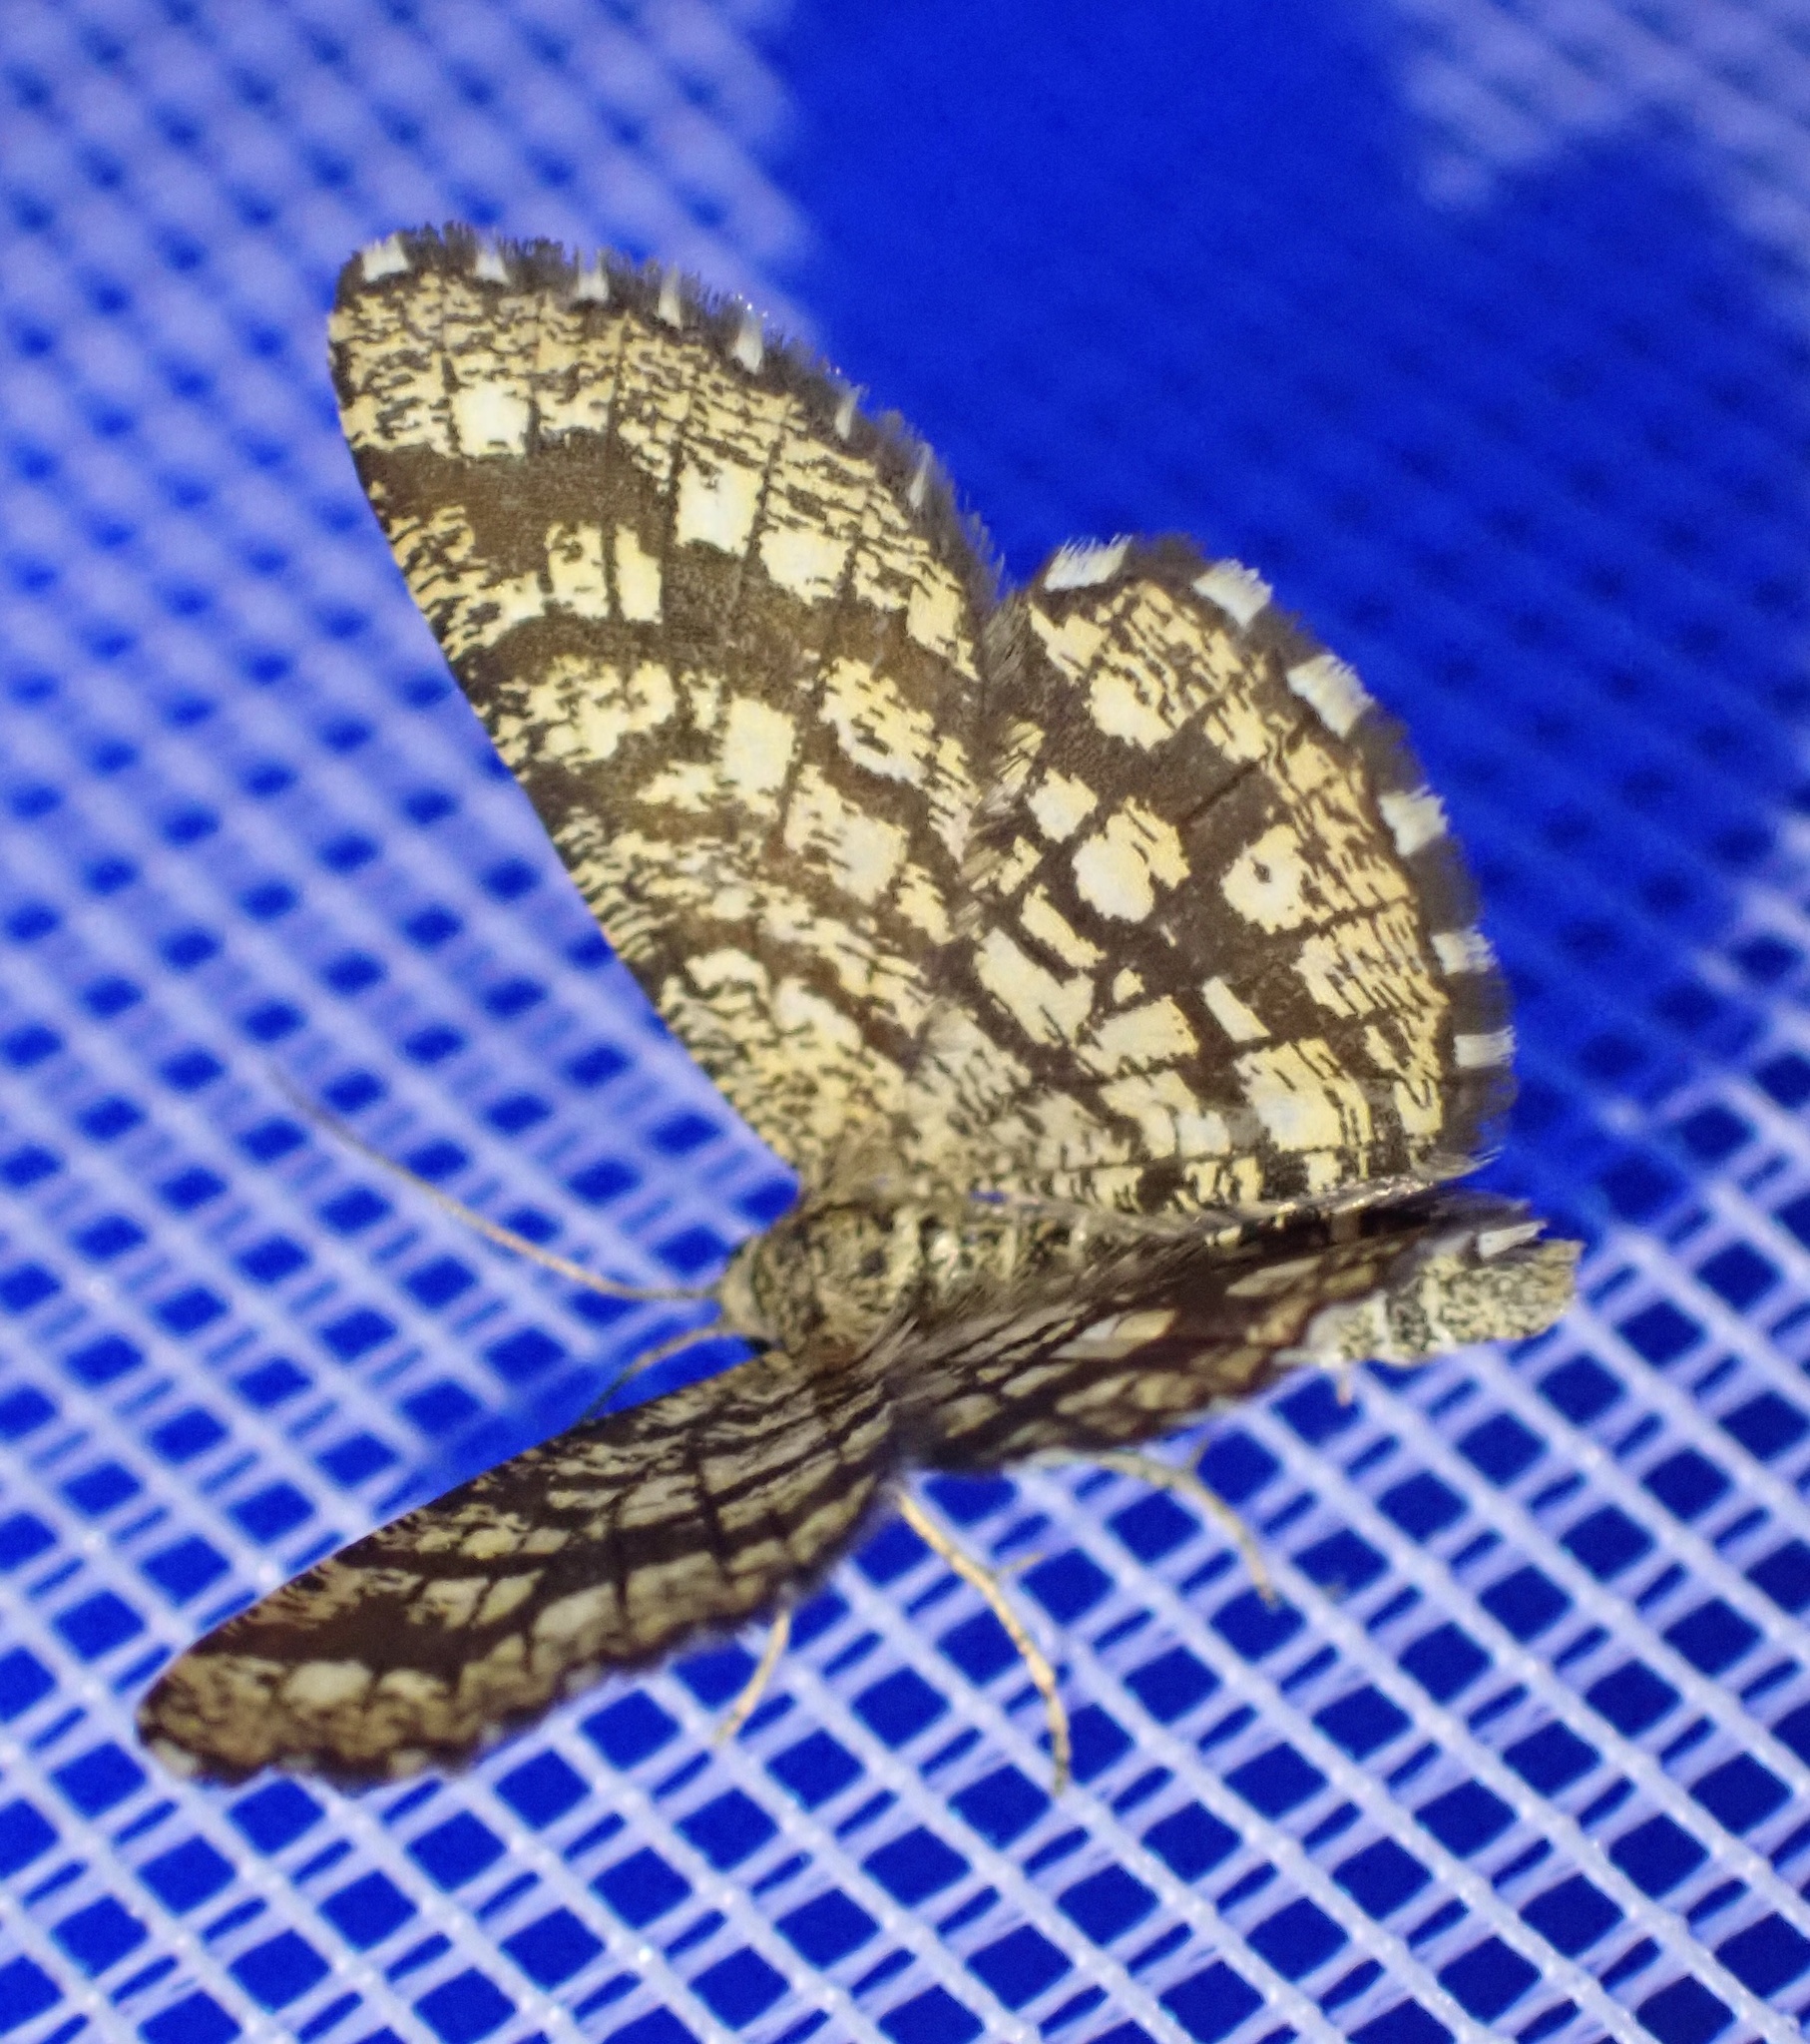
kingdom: Animalia
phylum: Arthropoda
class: Insecta
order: Lepidoptera
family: Geometridae
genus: Chiasmia
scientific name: Chiasmia clathrata
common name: Latticed heath
